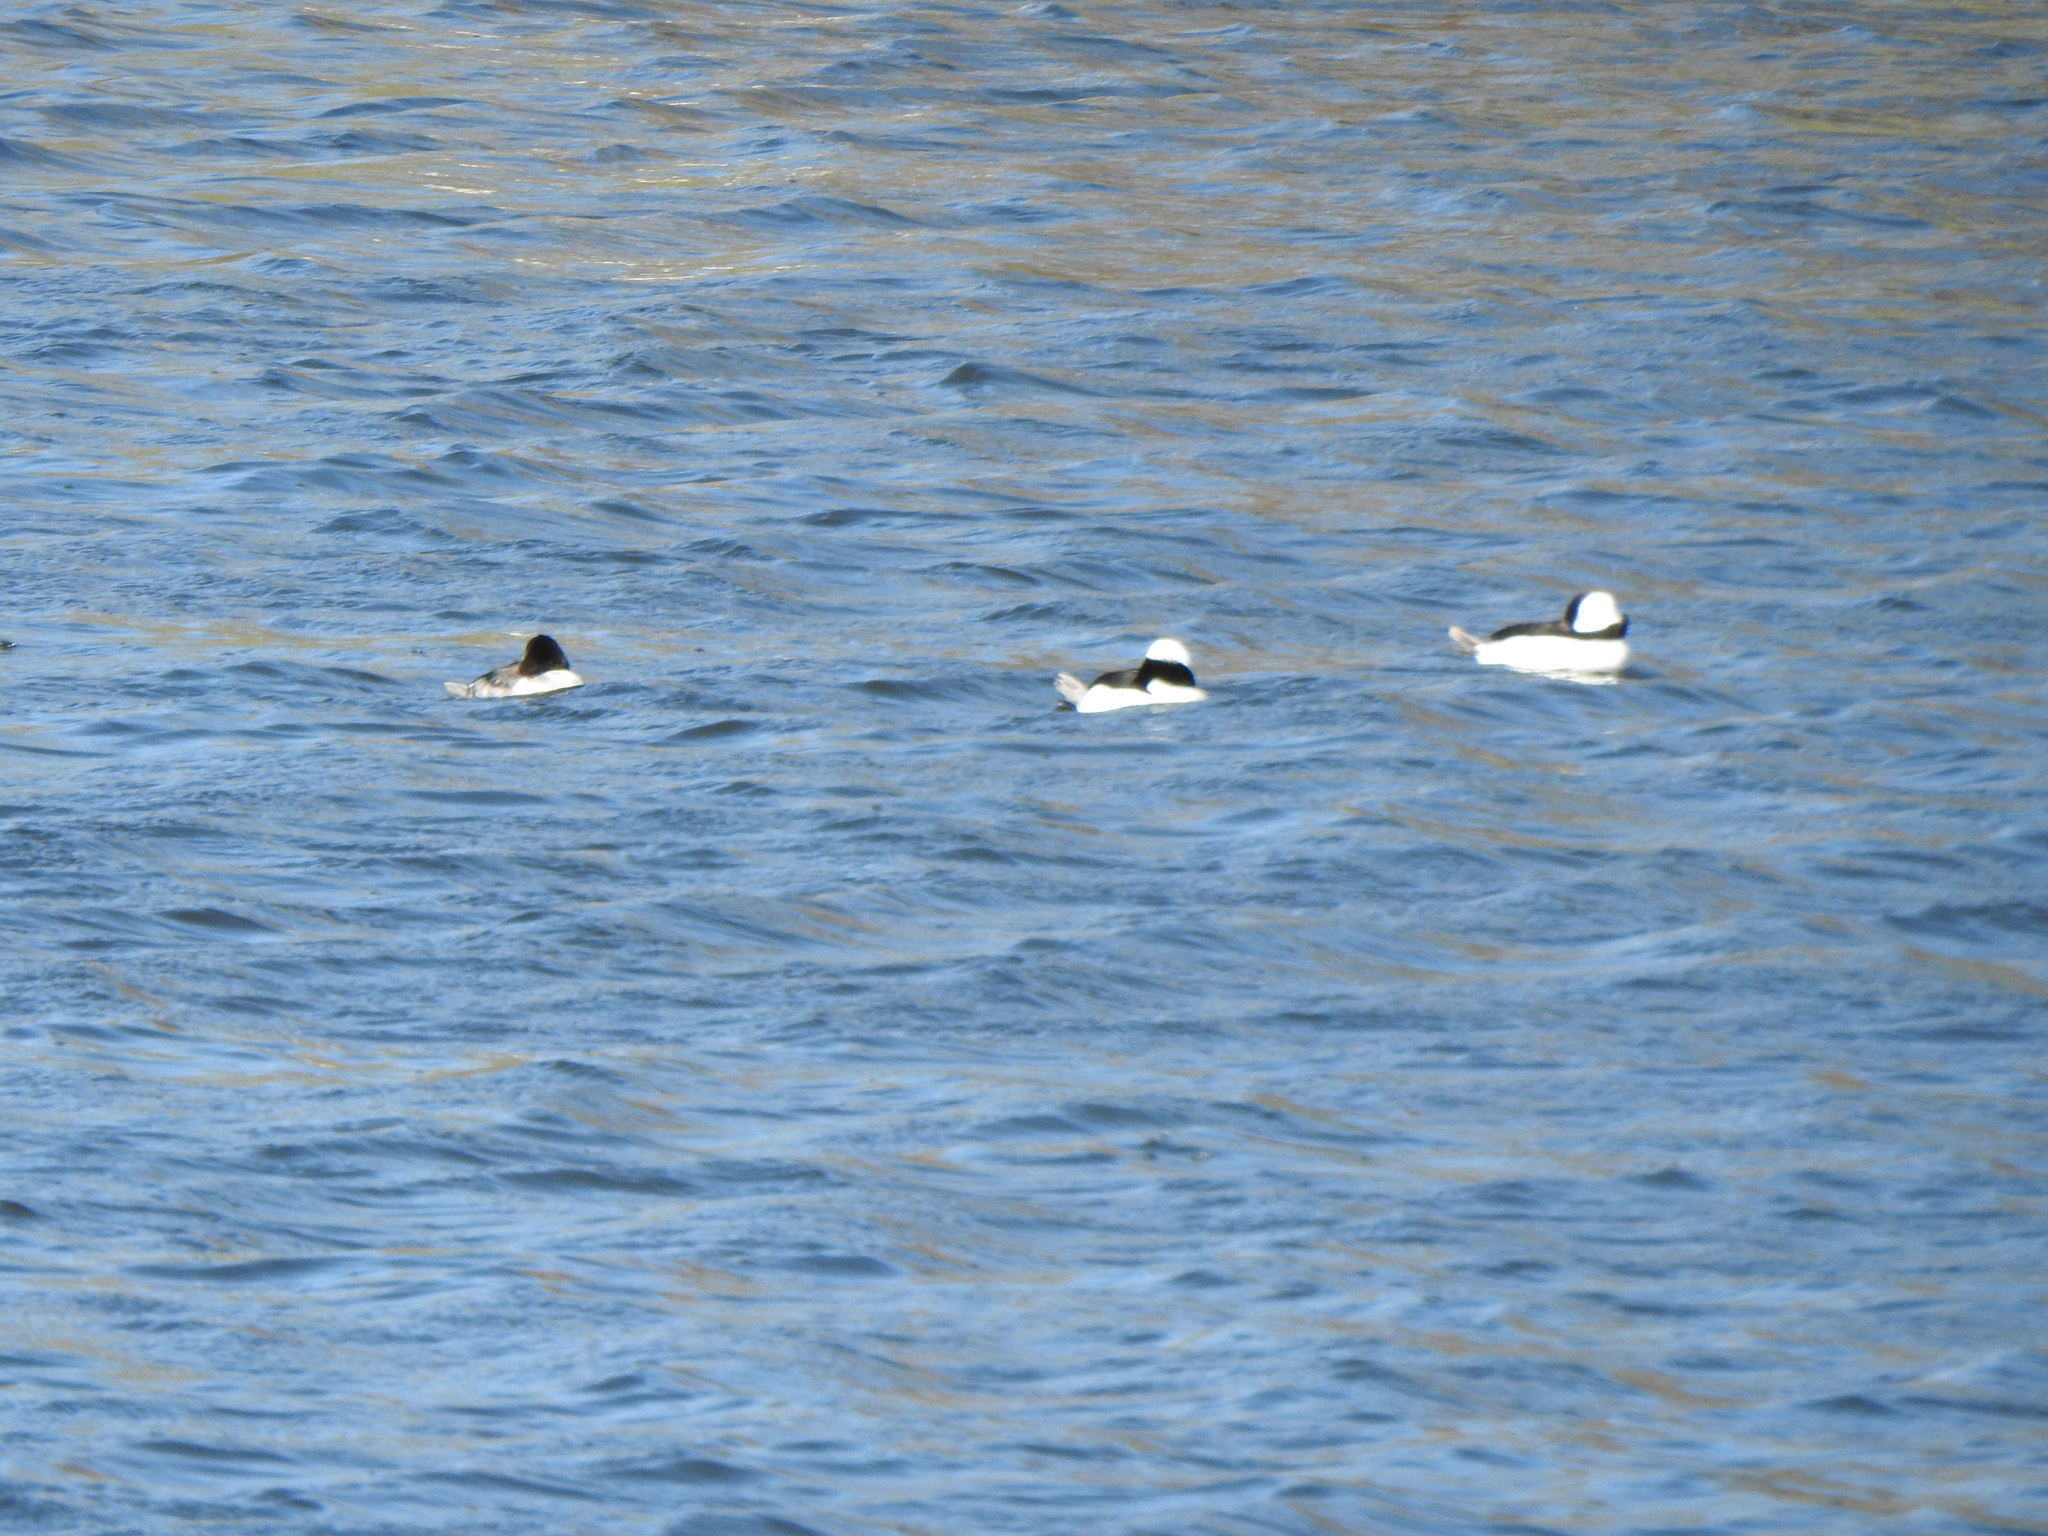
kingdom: Animalia
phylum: Chordata
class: Aves
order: Anseriformes
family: Anatidae
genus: Bucephala
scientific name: Bucephala albeola
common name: Bufflehead
